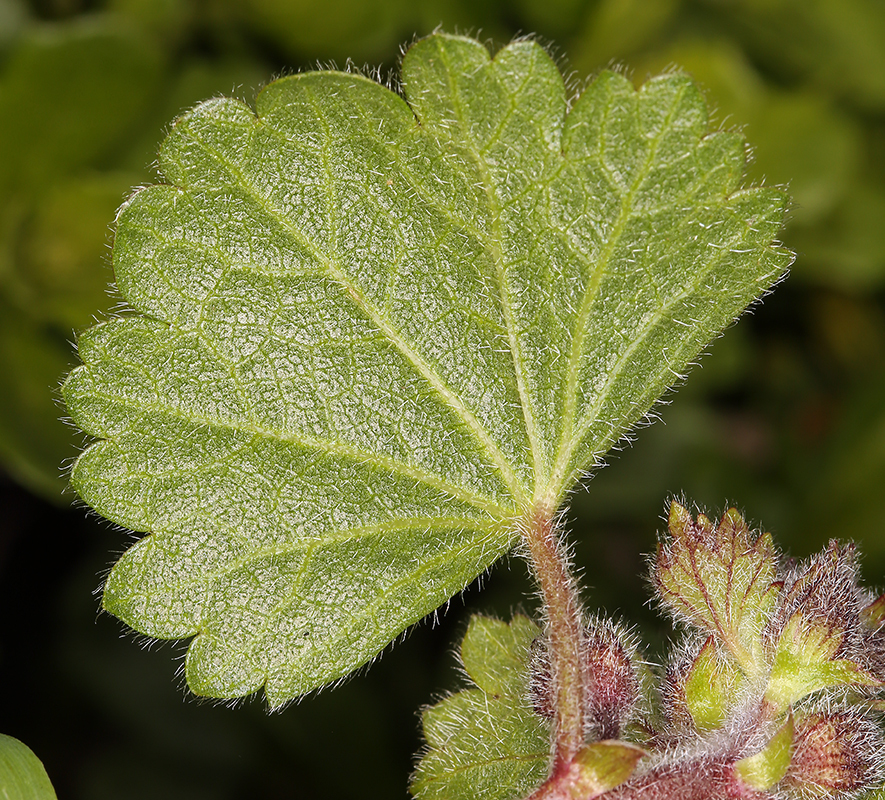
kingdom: Plantae
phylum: Tracheophyta
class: Magnoliopsida
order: Malvales
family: Malvaceae
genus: Sidalcea
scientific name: Sidalcea malviflora
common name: Greek mallow
